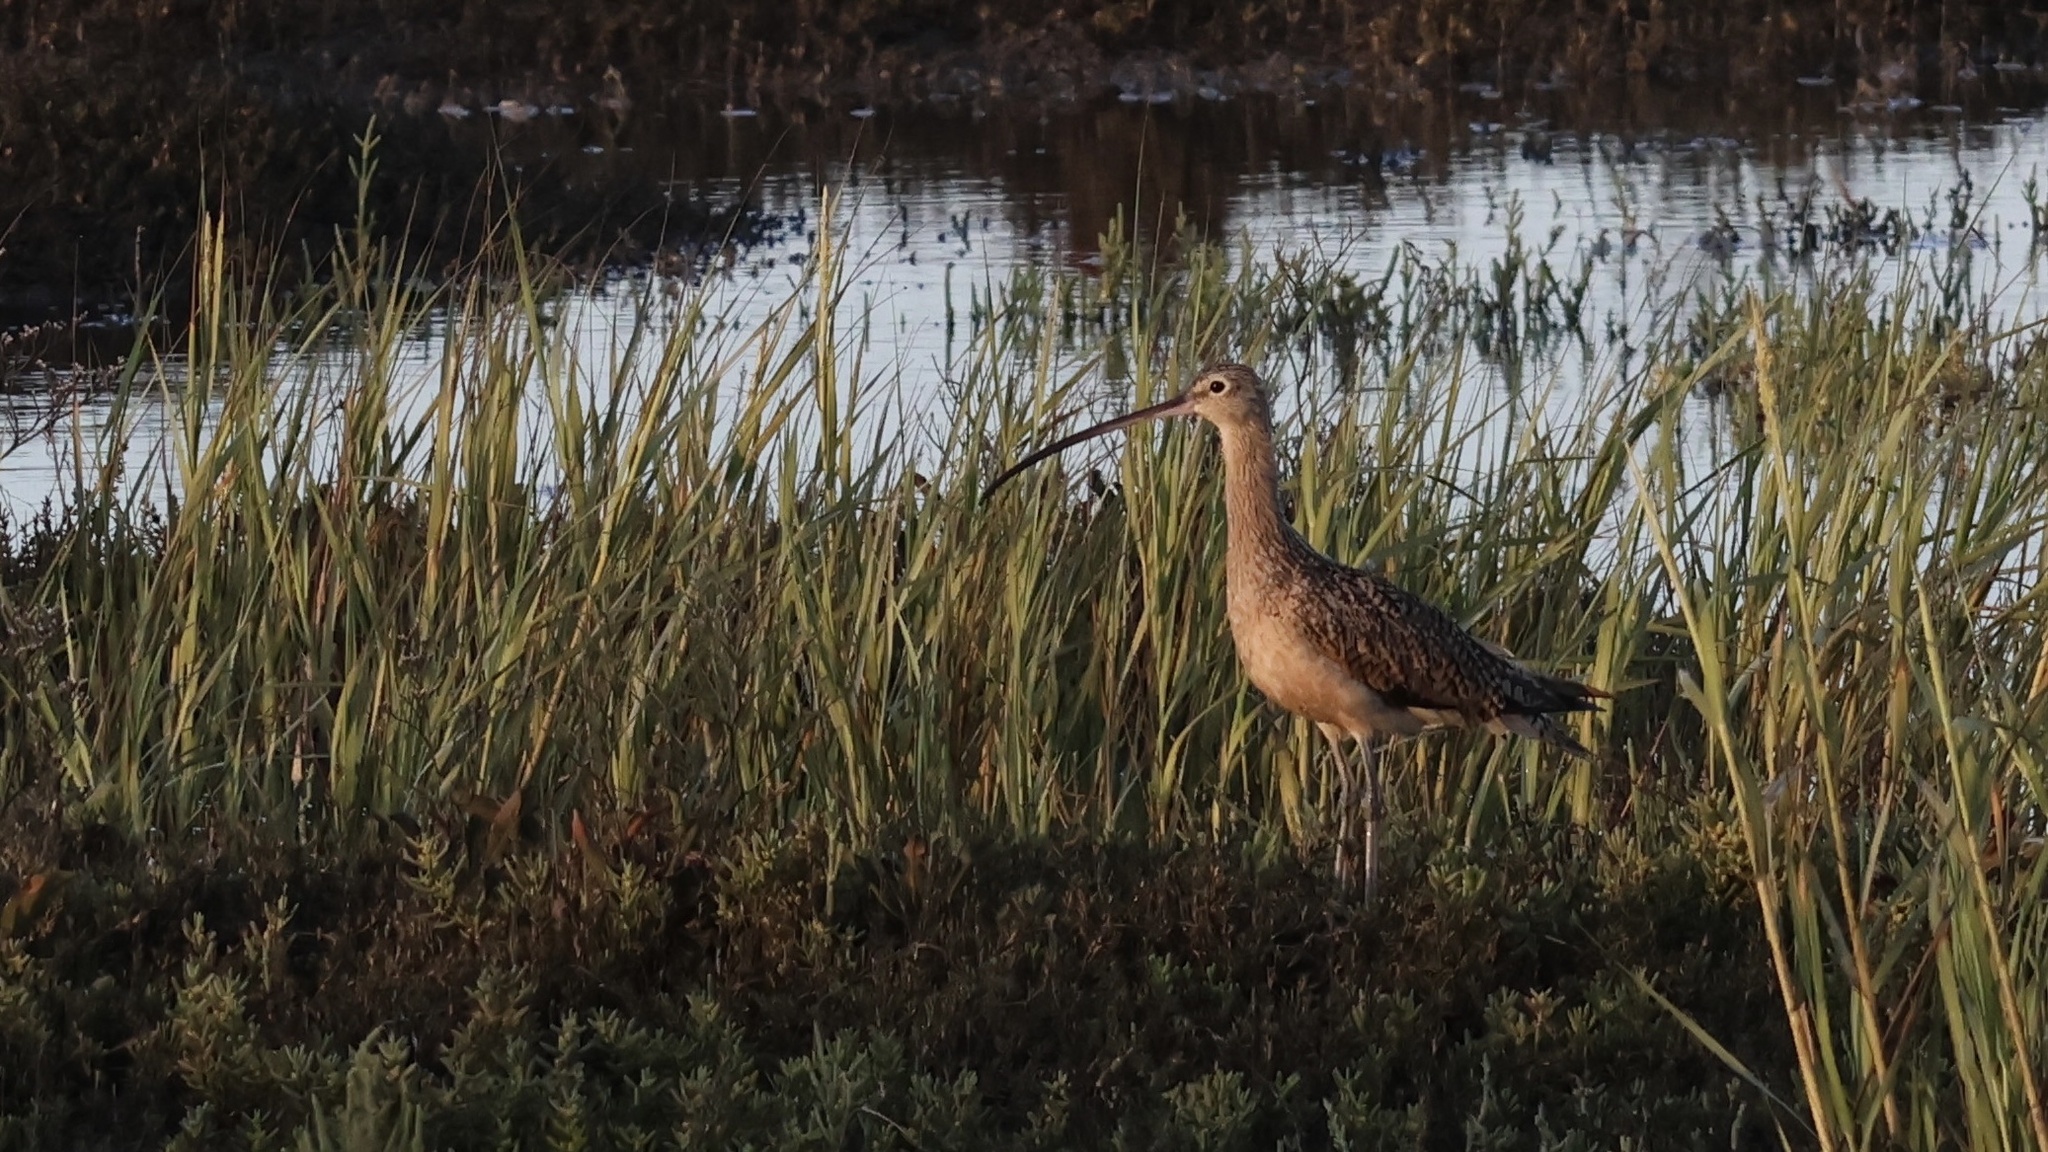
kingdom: Animalia
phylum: Chordata
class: Aves
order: Charadriiformes
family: Scolopacidae
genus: Numenius
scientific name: Numenius americanus
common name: Long-billed curlew
